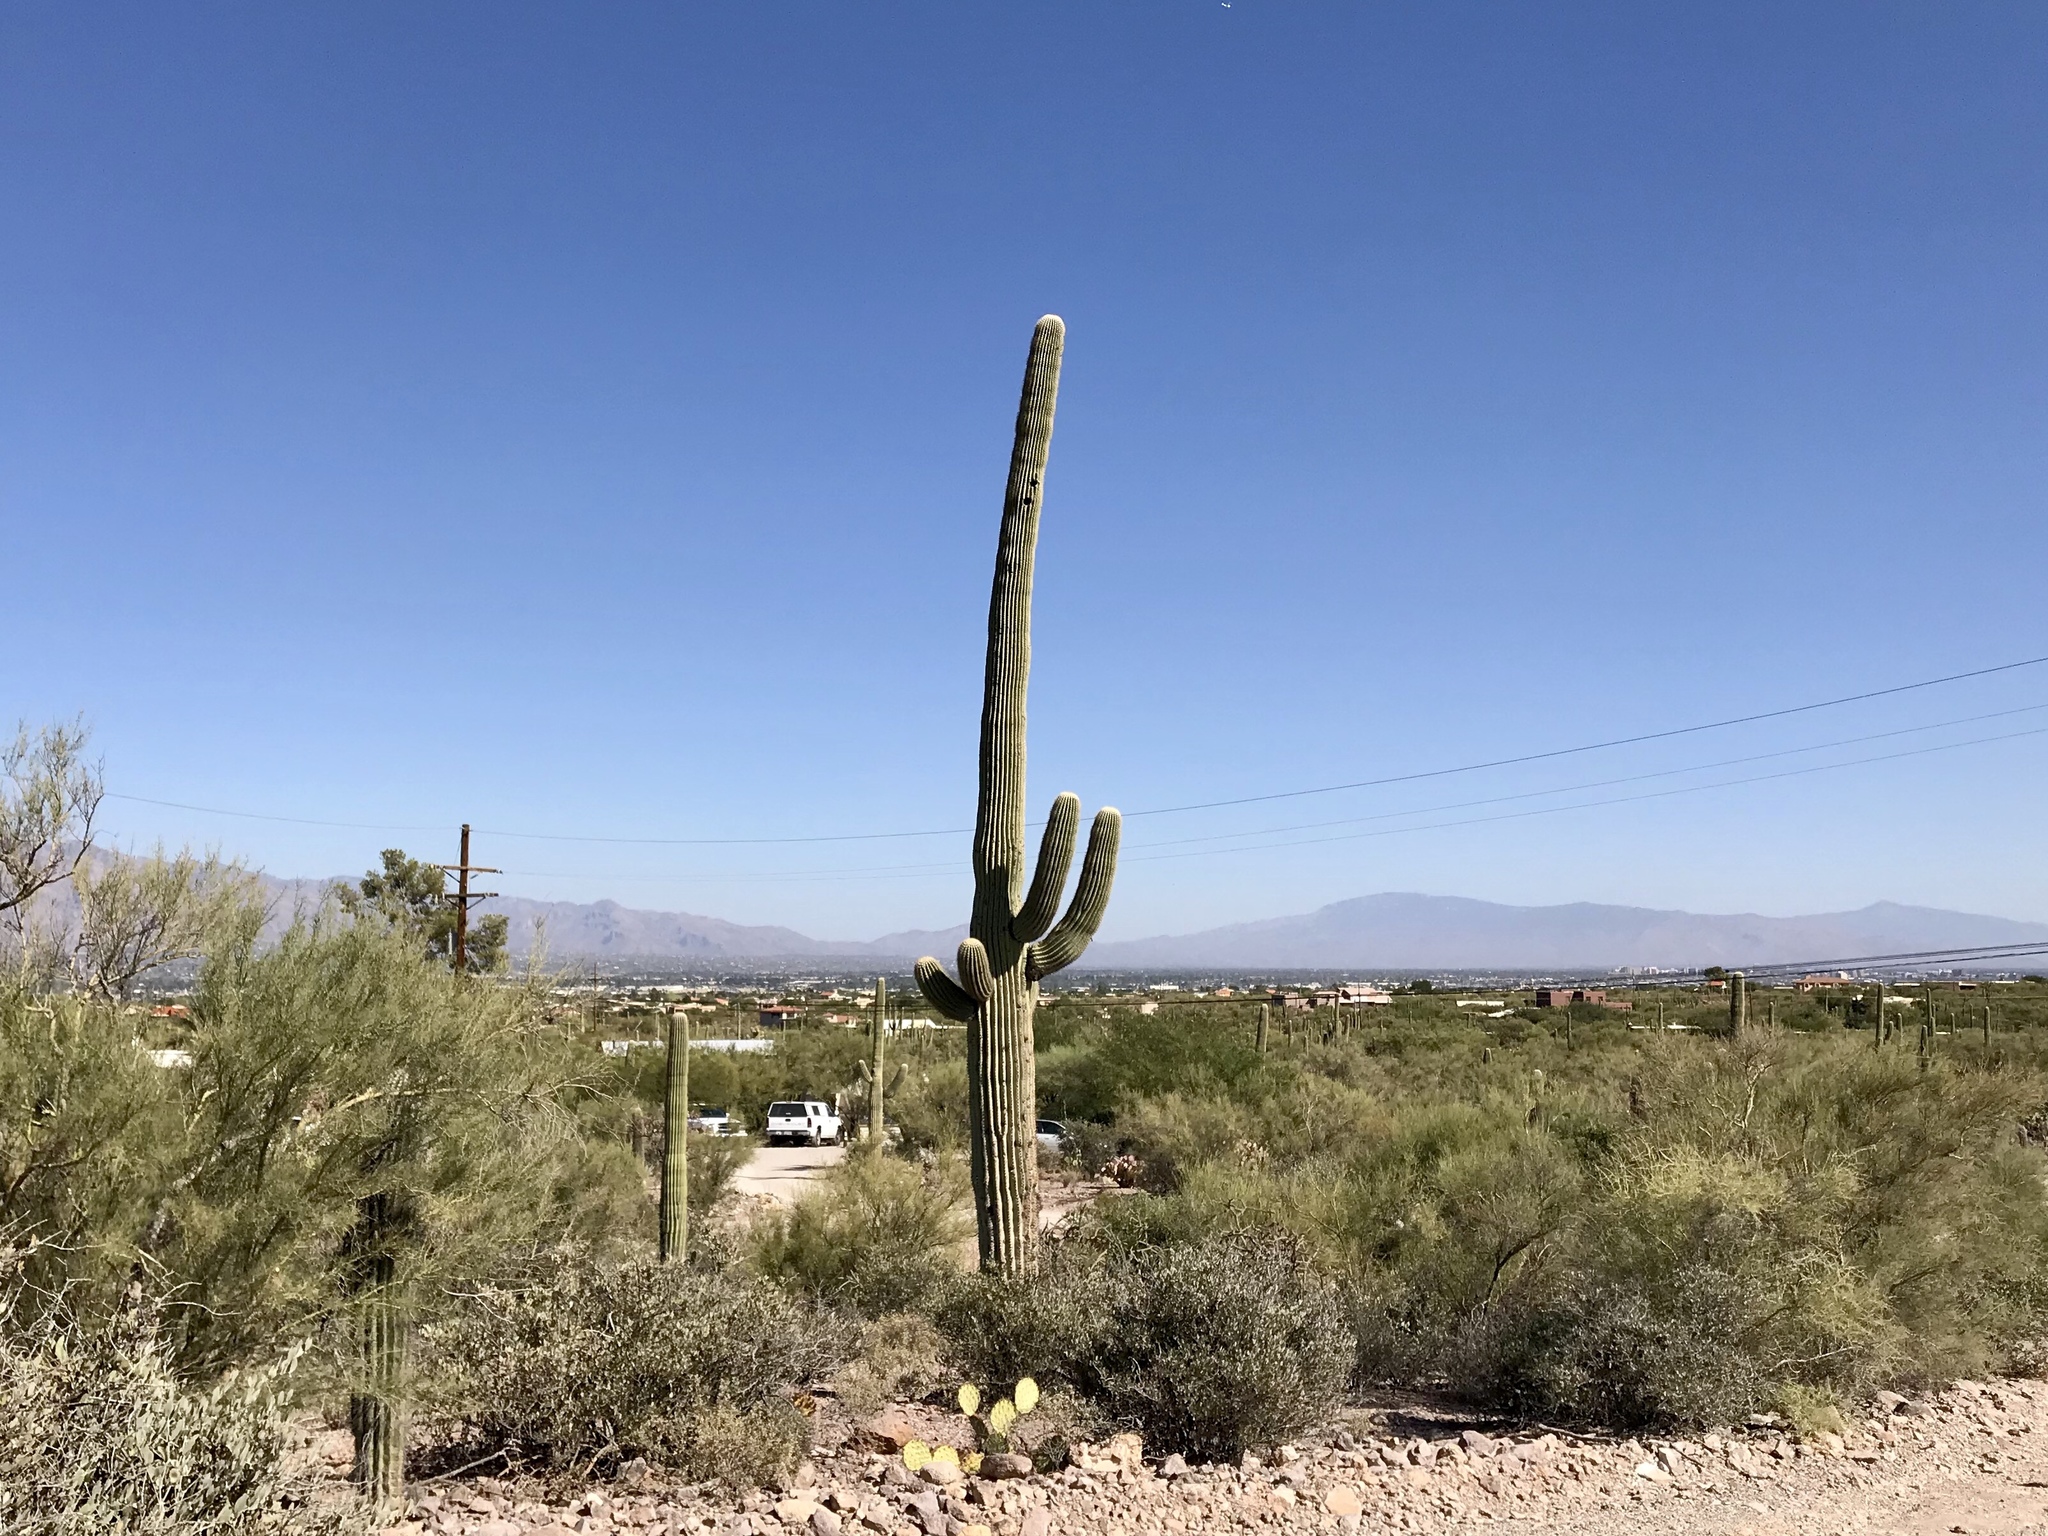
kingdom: Plantae
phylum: Tracheophyta
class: Magnoliopsida
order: Caryophyllales
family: Cactaceae
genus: Carnegiea
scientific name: Carnegiea gigantea
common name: Saguaro
